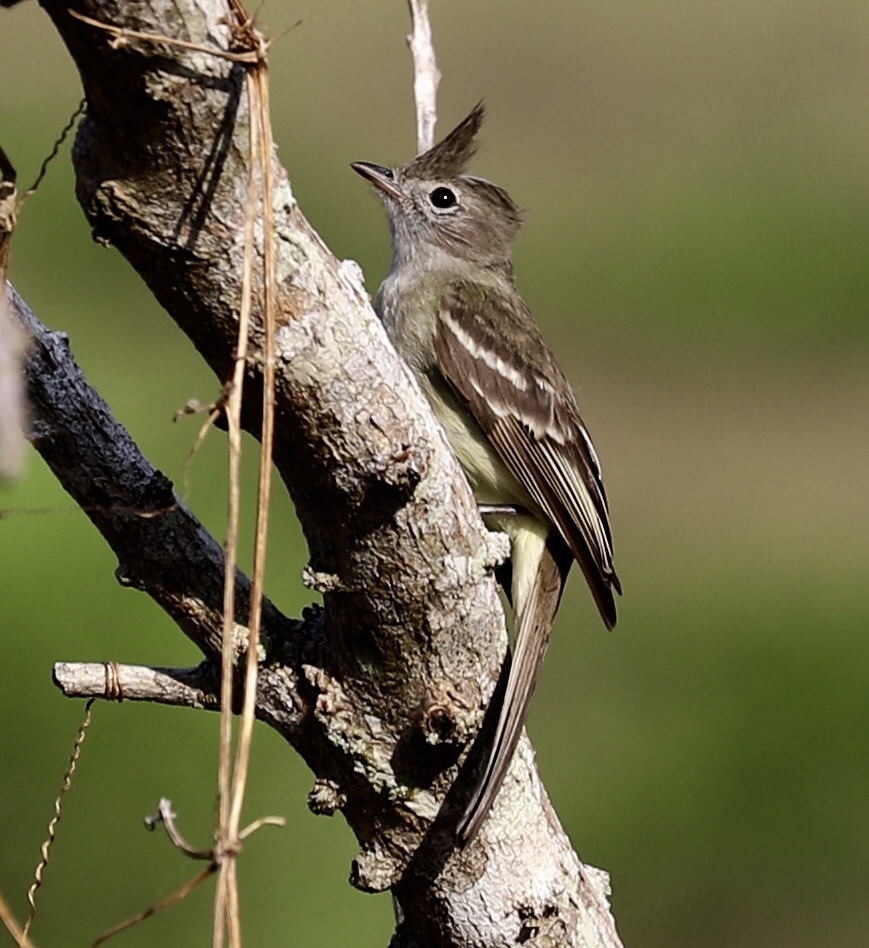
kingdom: Animalia
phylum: Chordata
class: Aves
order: Passeriformes
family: Tyrannidae
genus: Elaenia
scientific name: Elaenia flavogaster
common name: Yellow-bellied elaenia
